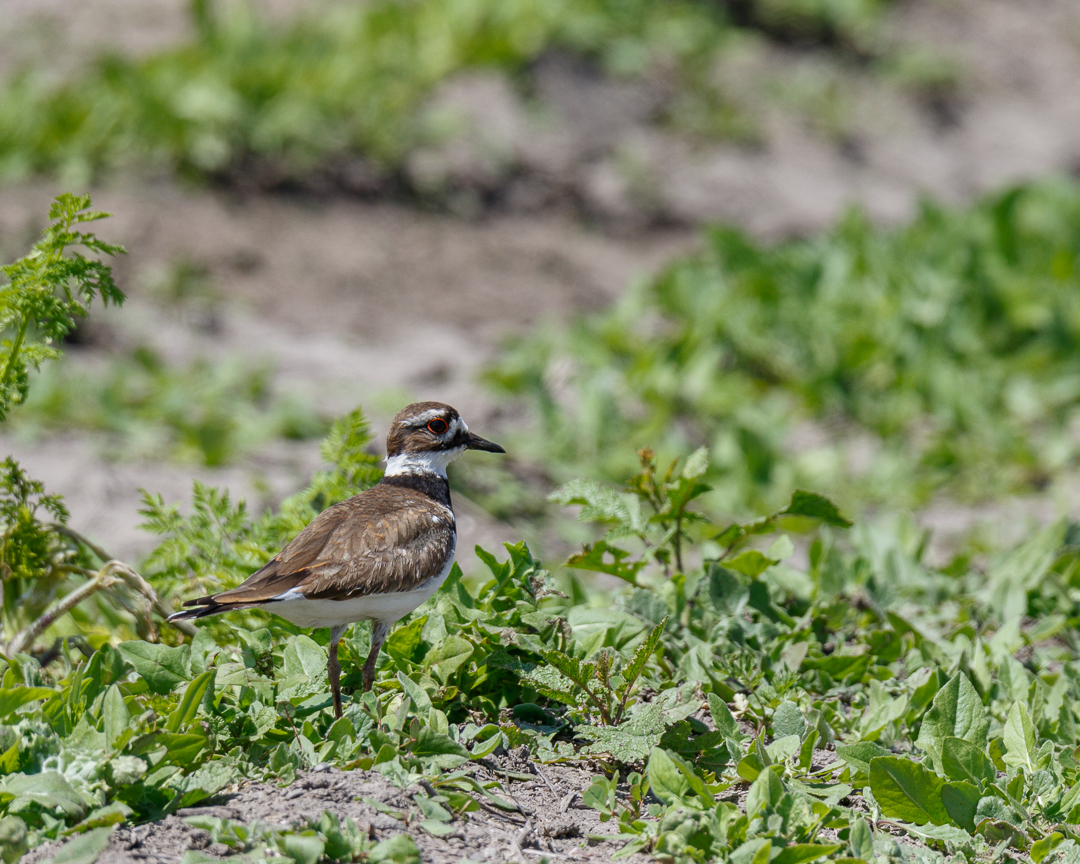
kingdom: Animalia
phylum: Chordata
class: Aves
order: Charadriiformes
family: Charadriidae
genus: Charadrius
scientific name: Charadrius vociferus
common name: Killdeer
